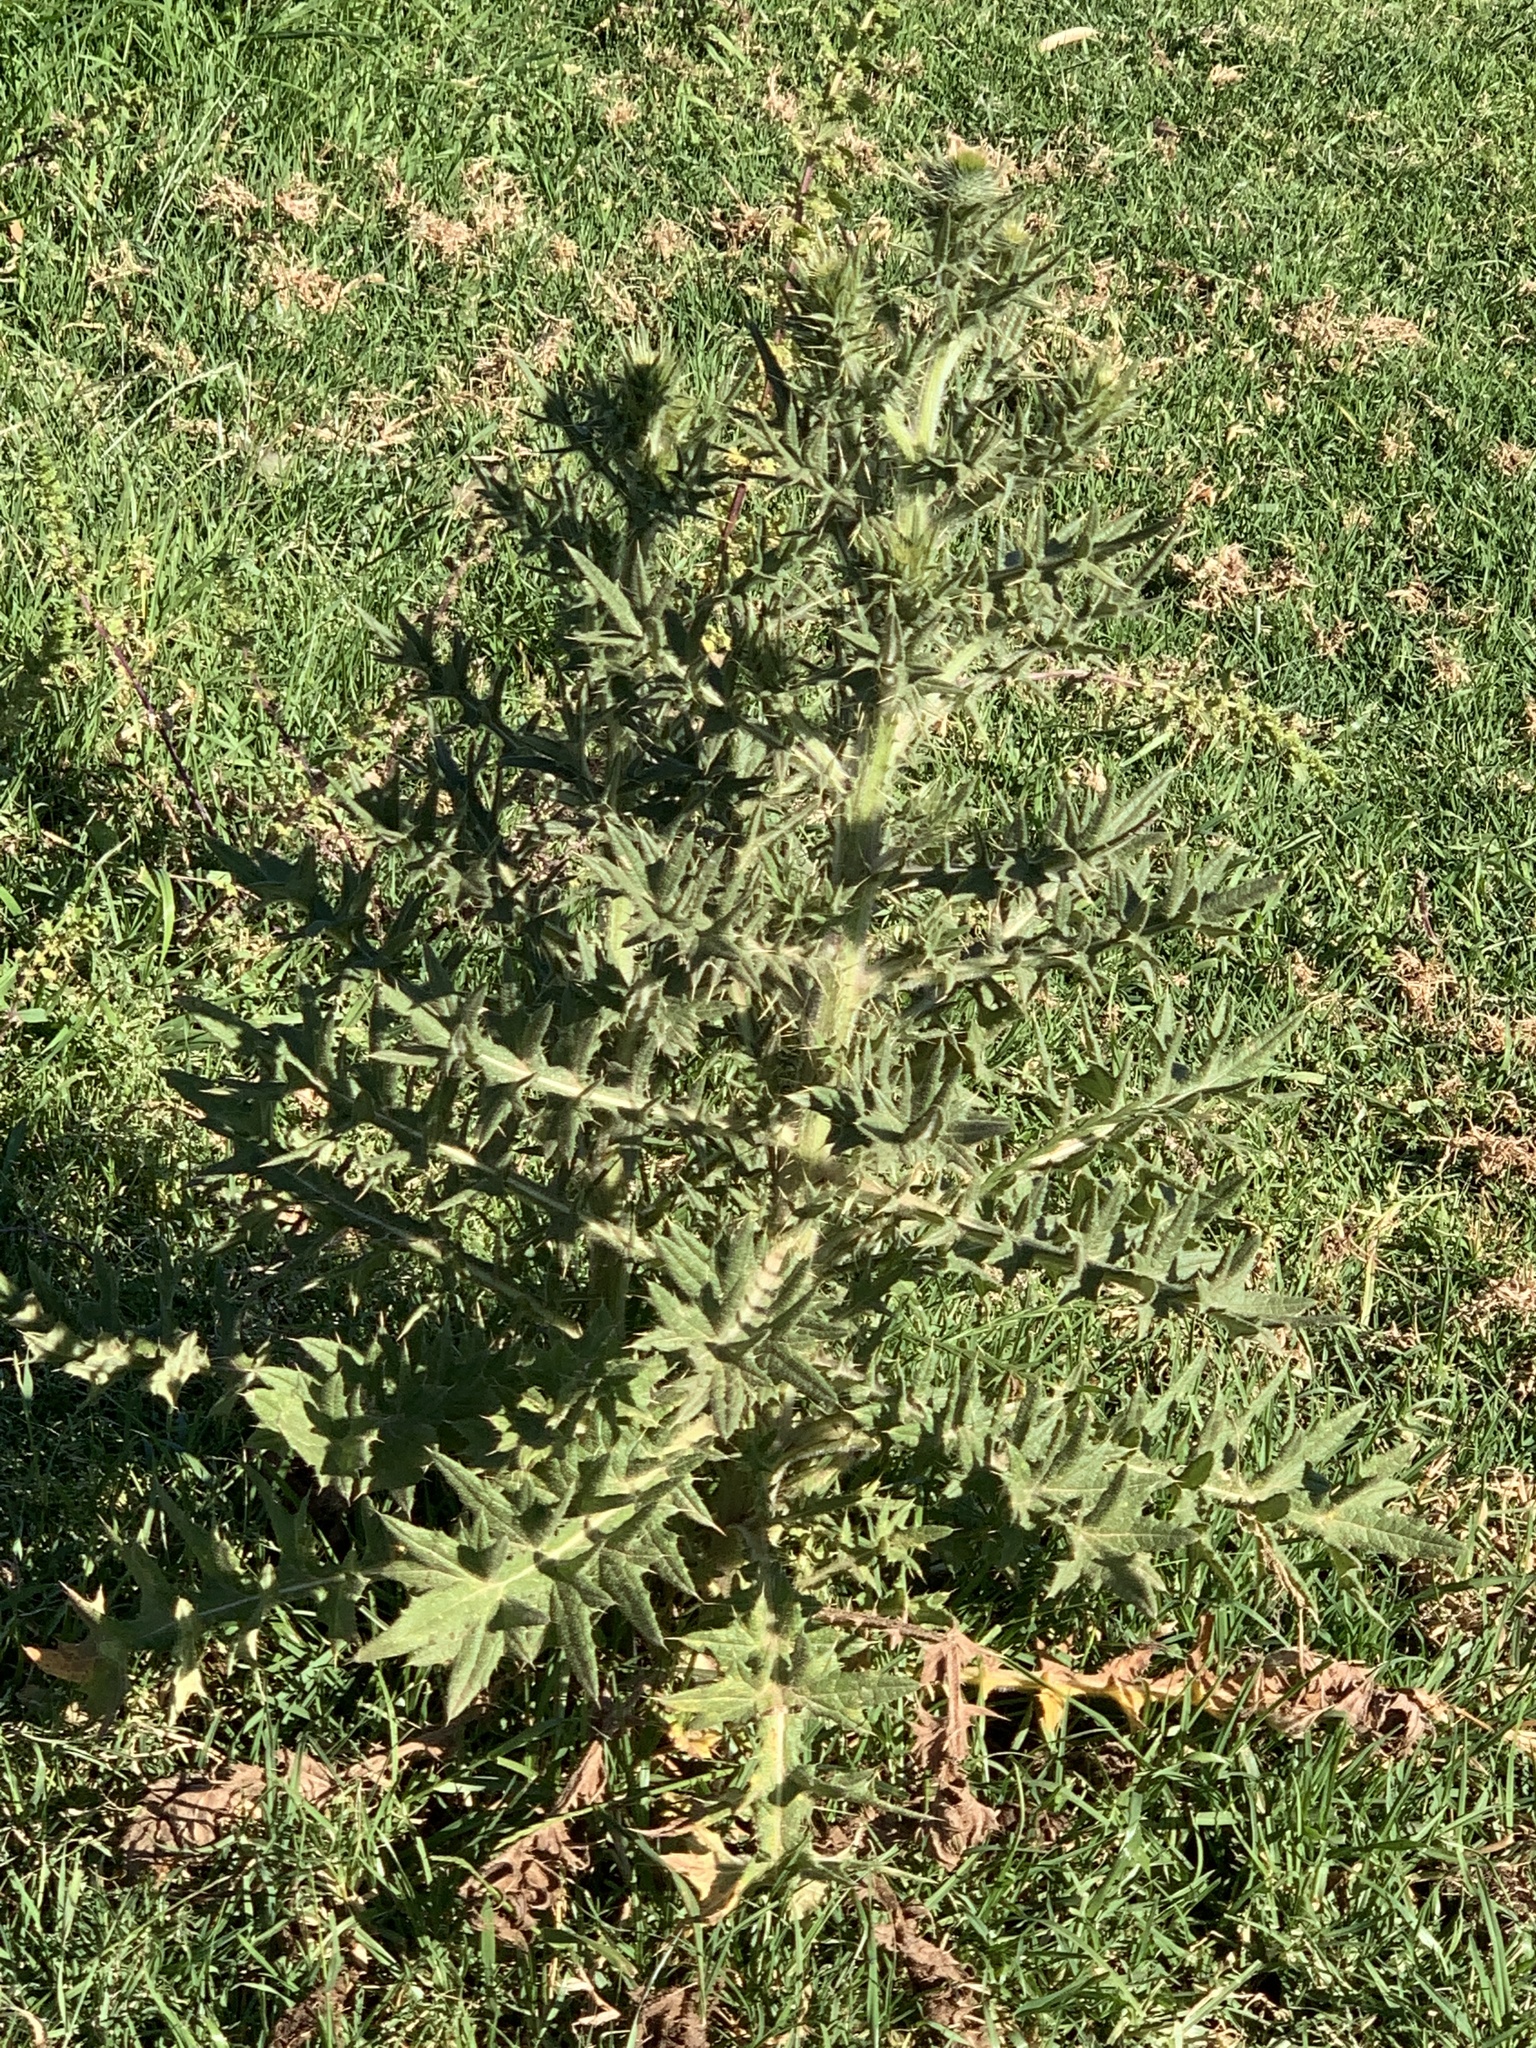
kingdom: Plantae
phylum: Tracheophyta
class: Magnoliopsida
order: Asterales
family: Asteraceae
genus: Cirsium
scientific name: Cirsium vulgare
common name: Bull thistle
